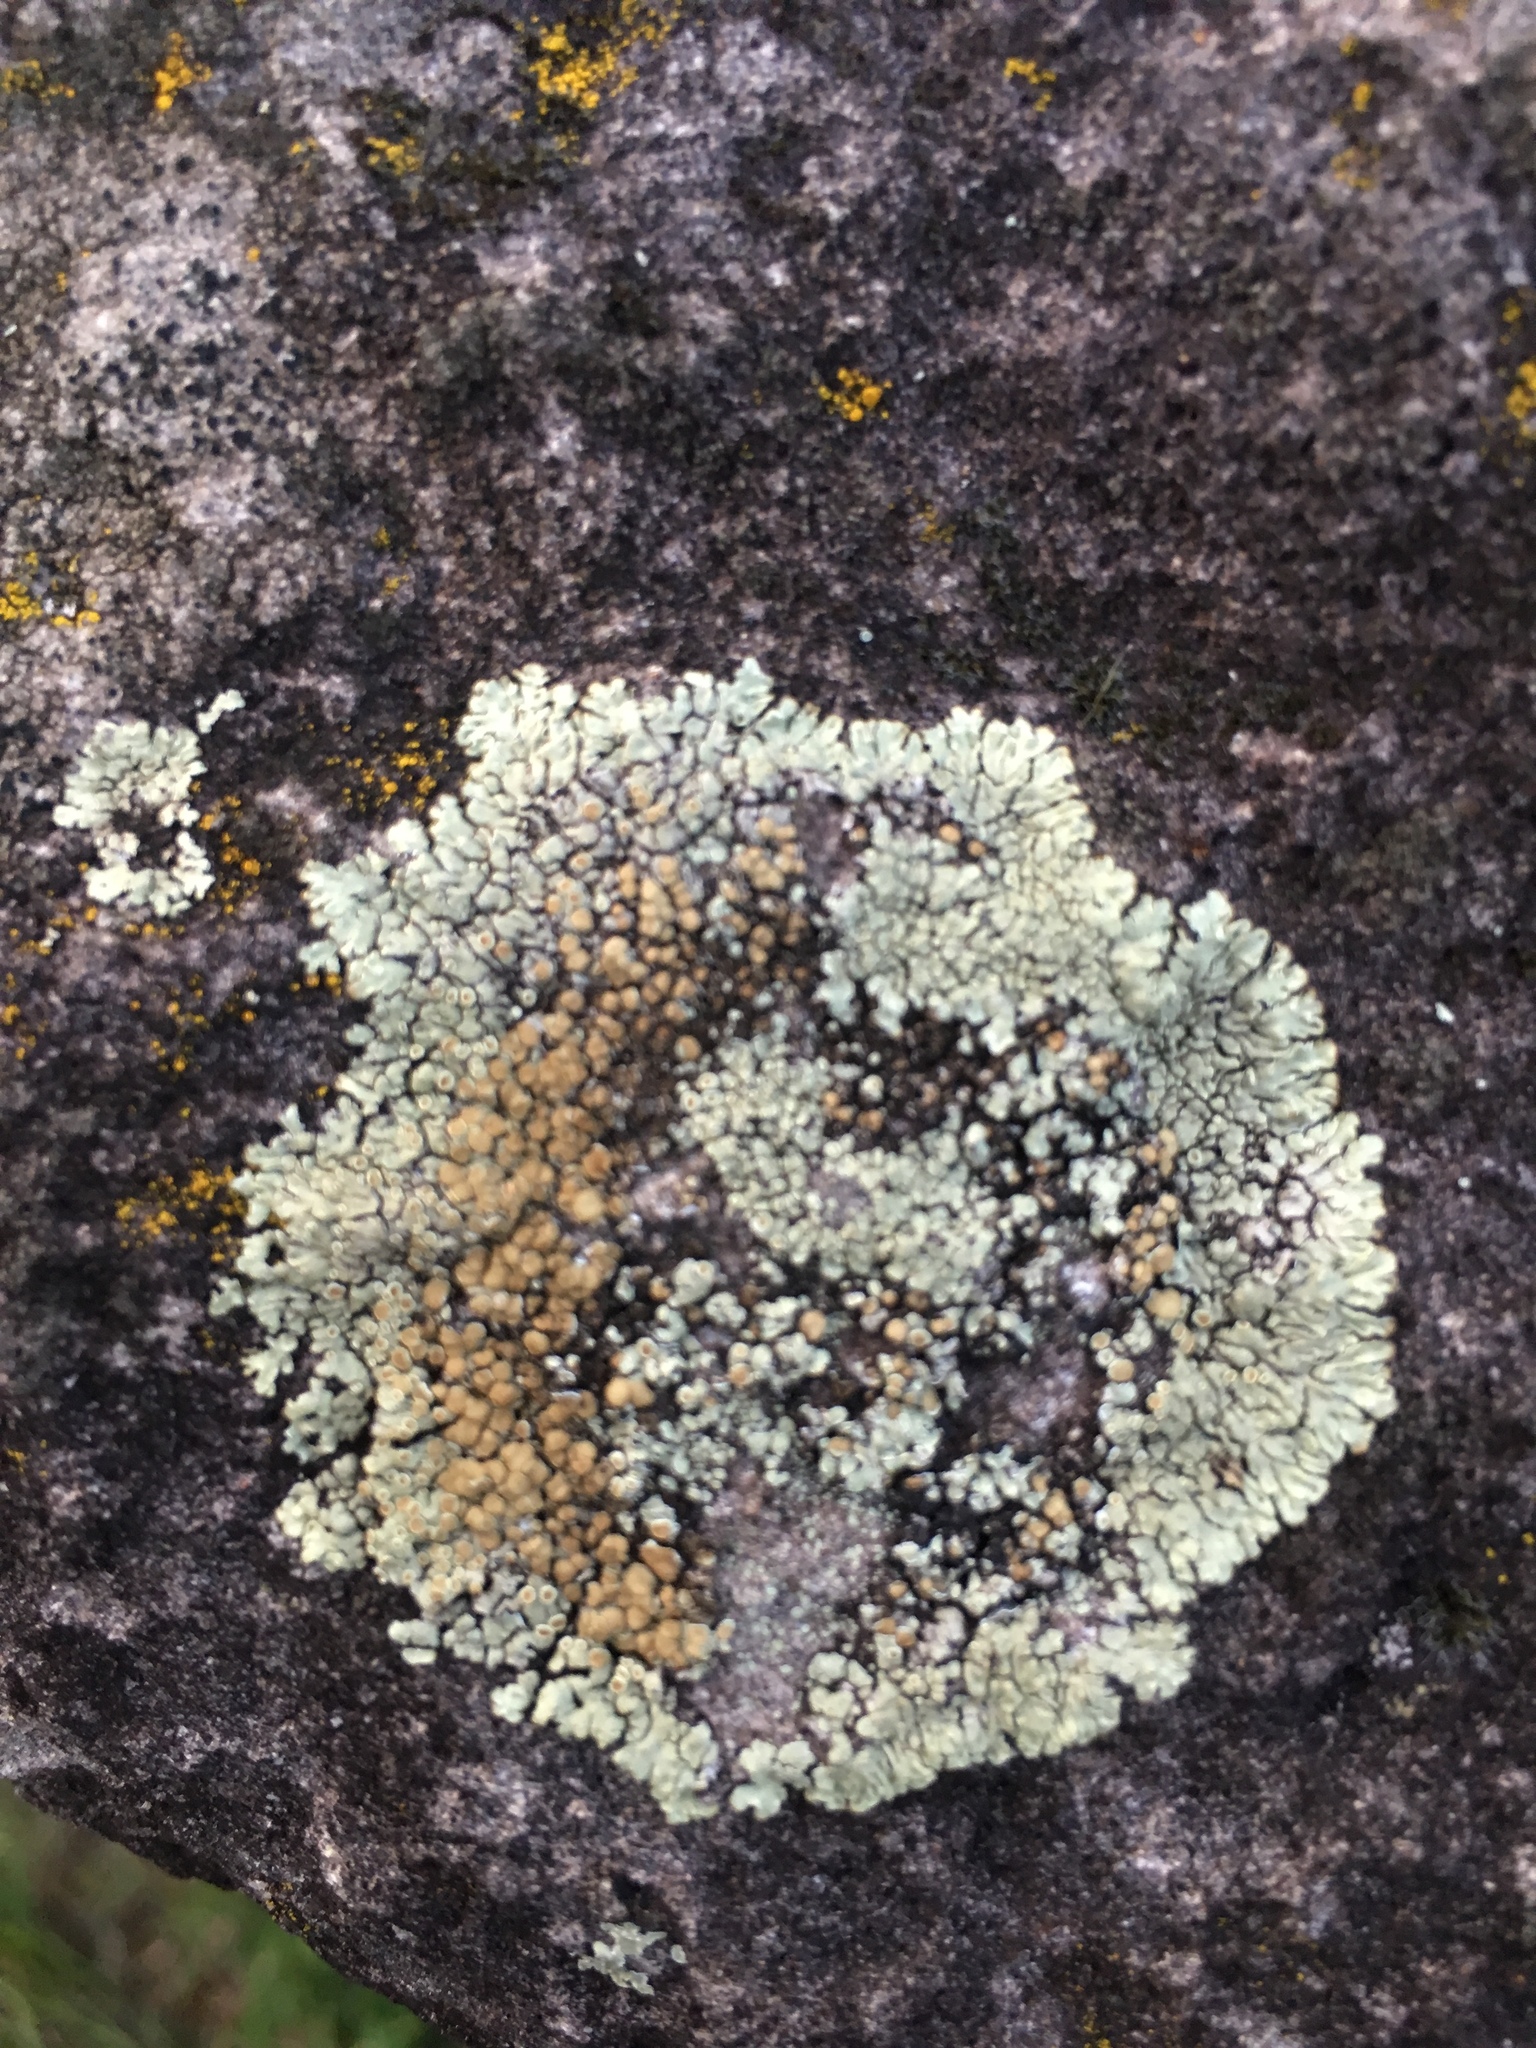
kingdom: Fungi
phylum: Ascomycota
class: Lecanoromycetes
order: Lecanorales
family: Lecanoraceae
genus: Protoparmeliopsis
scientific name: Protoparmeliopsis muralis
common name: Stonewall rim lichen
